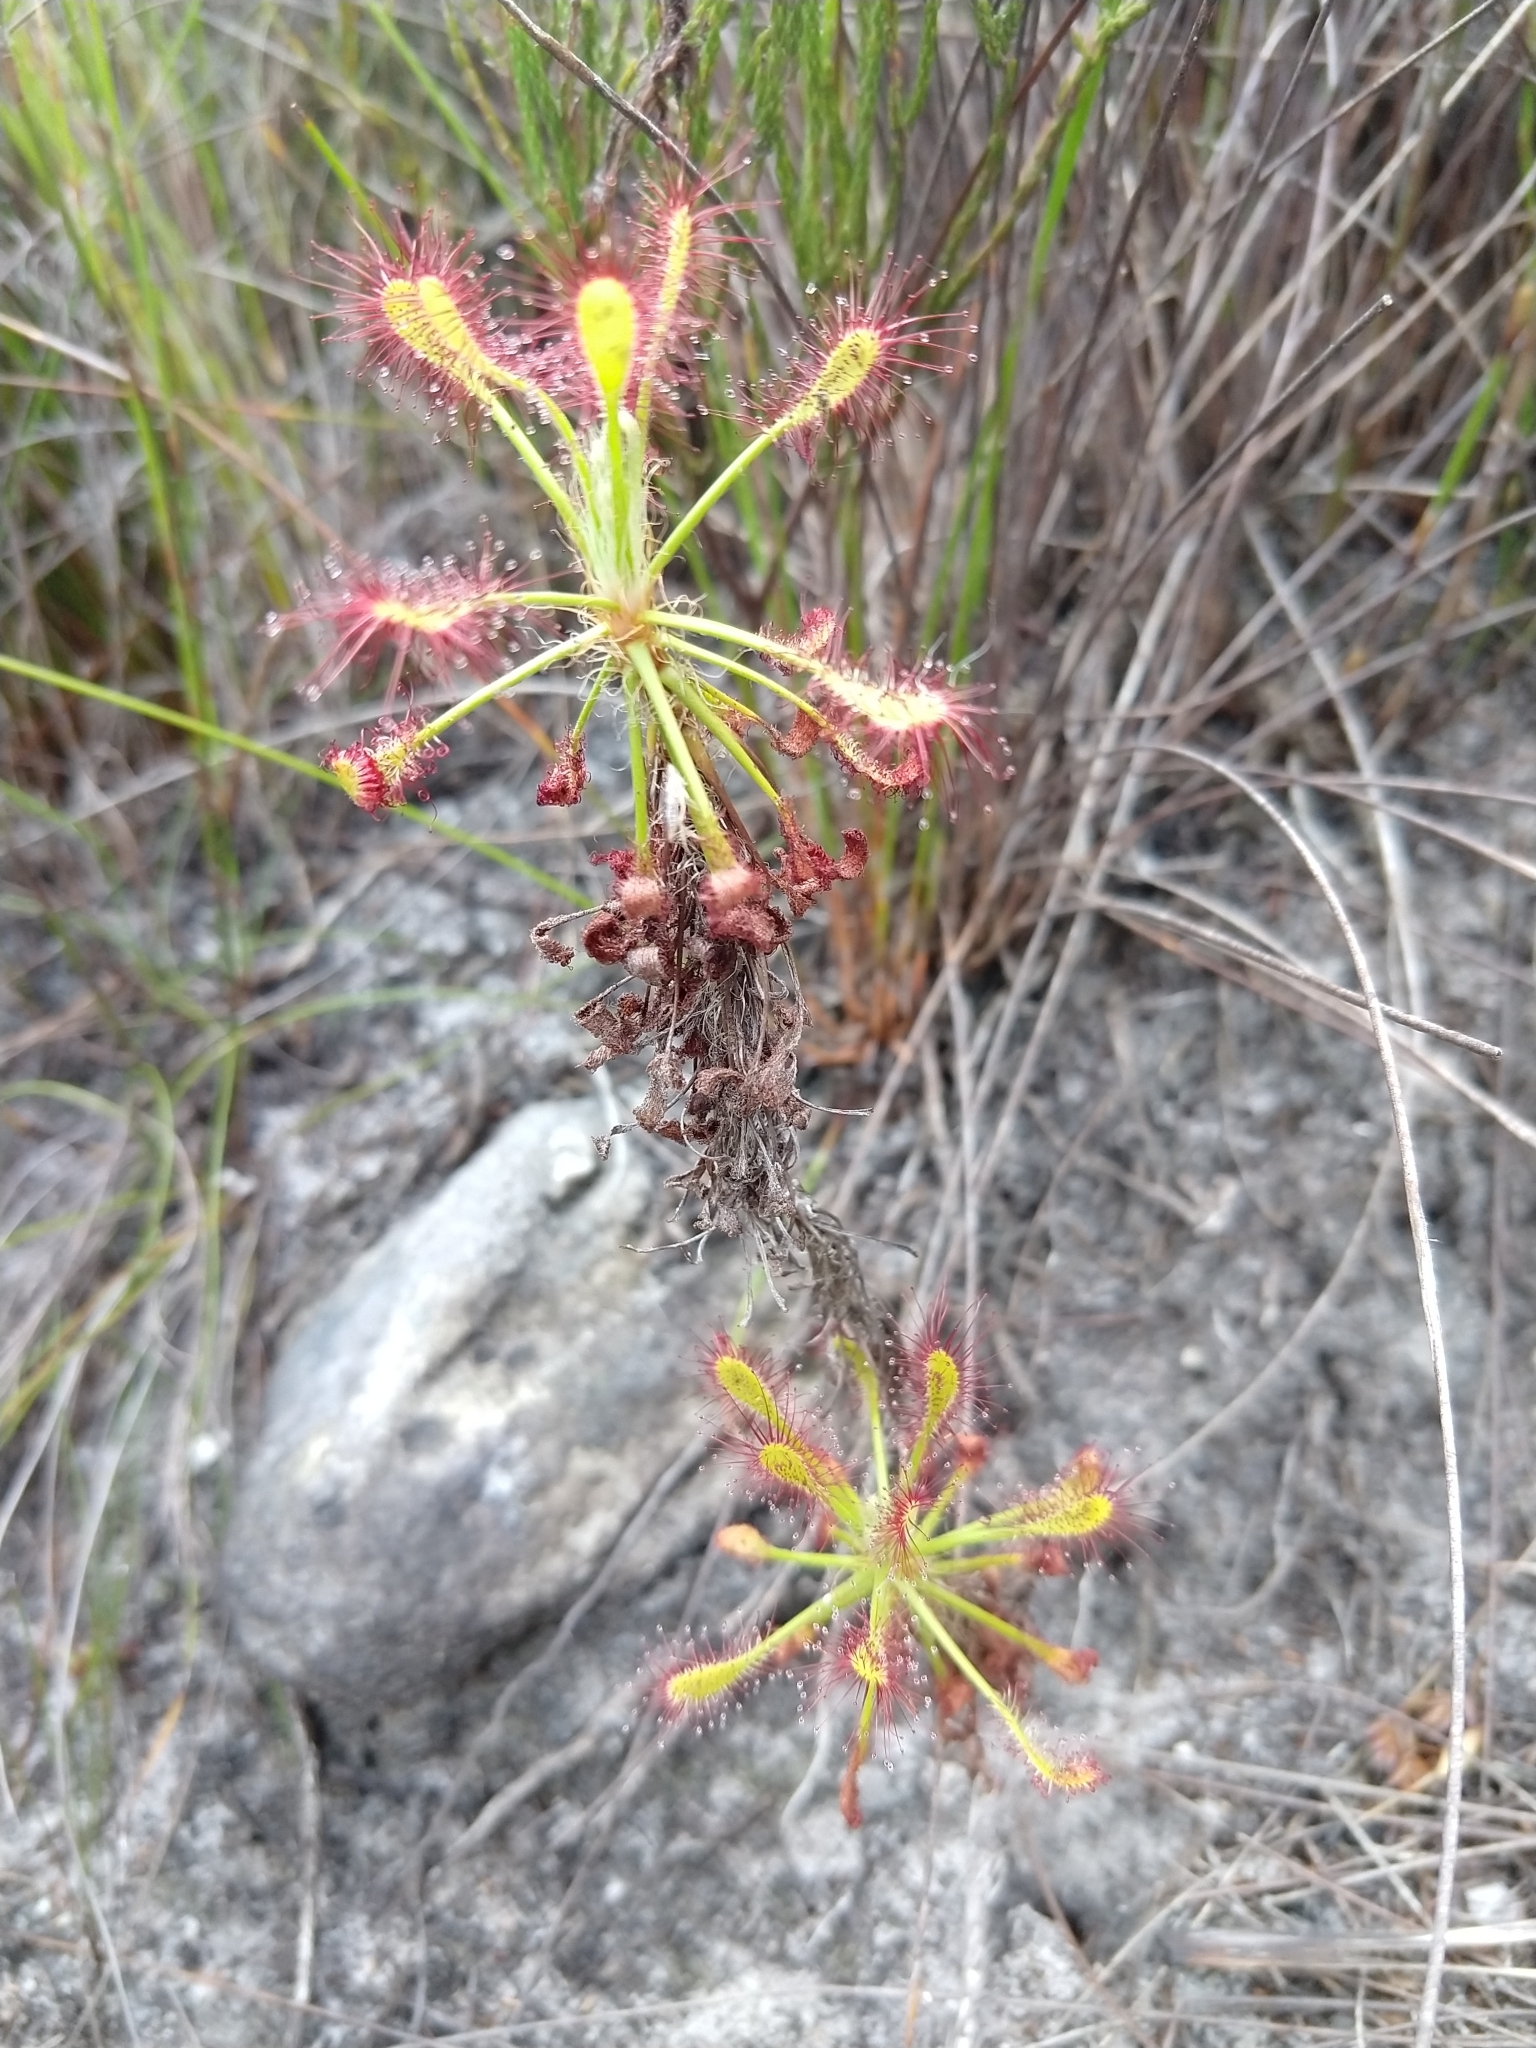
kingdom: Plantae
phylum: Tracheophyta
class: Magnoliopsida
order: Caryophyllales
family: Droseraceae
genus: Drosera
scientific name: Drosera glabripes
